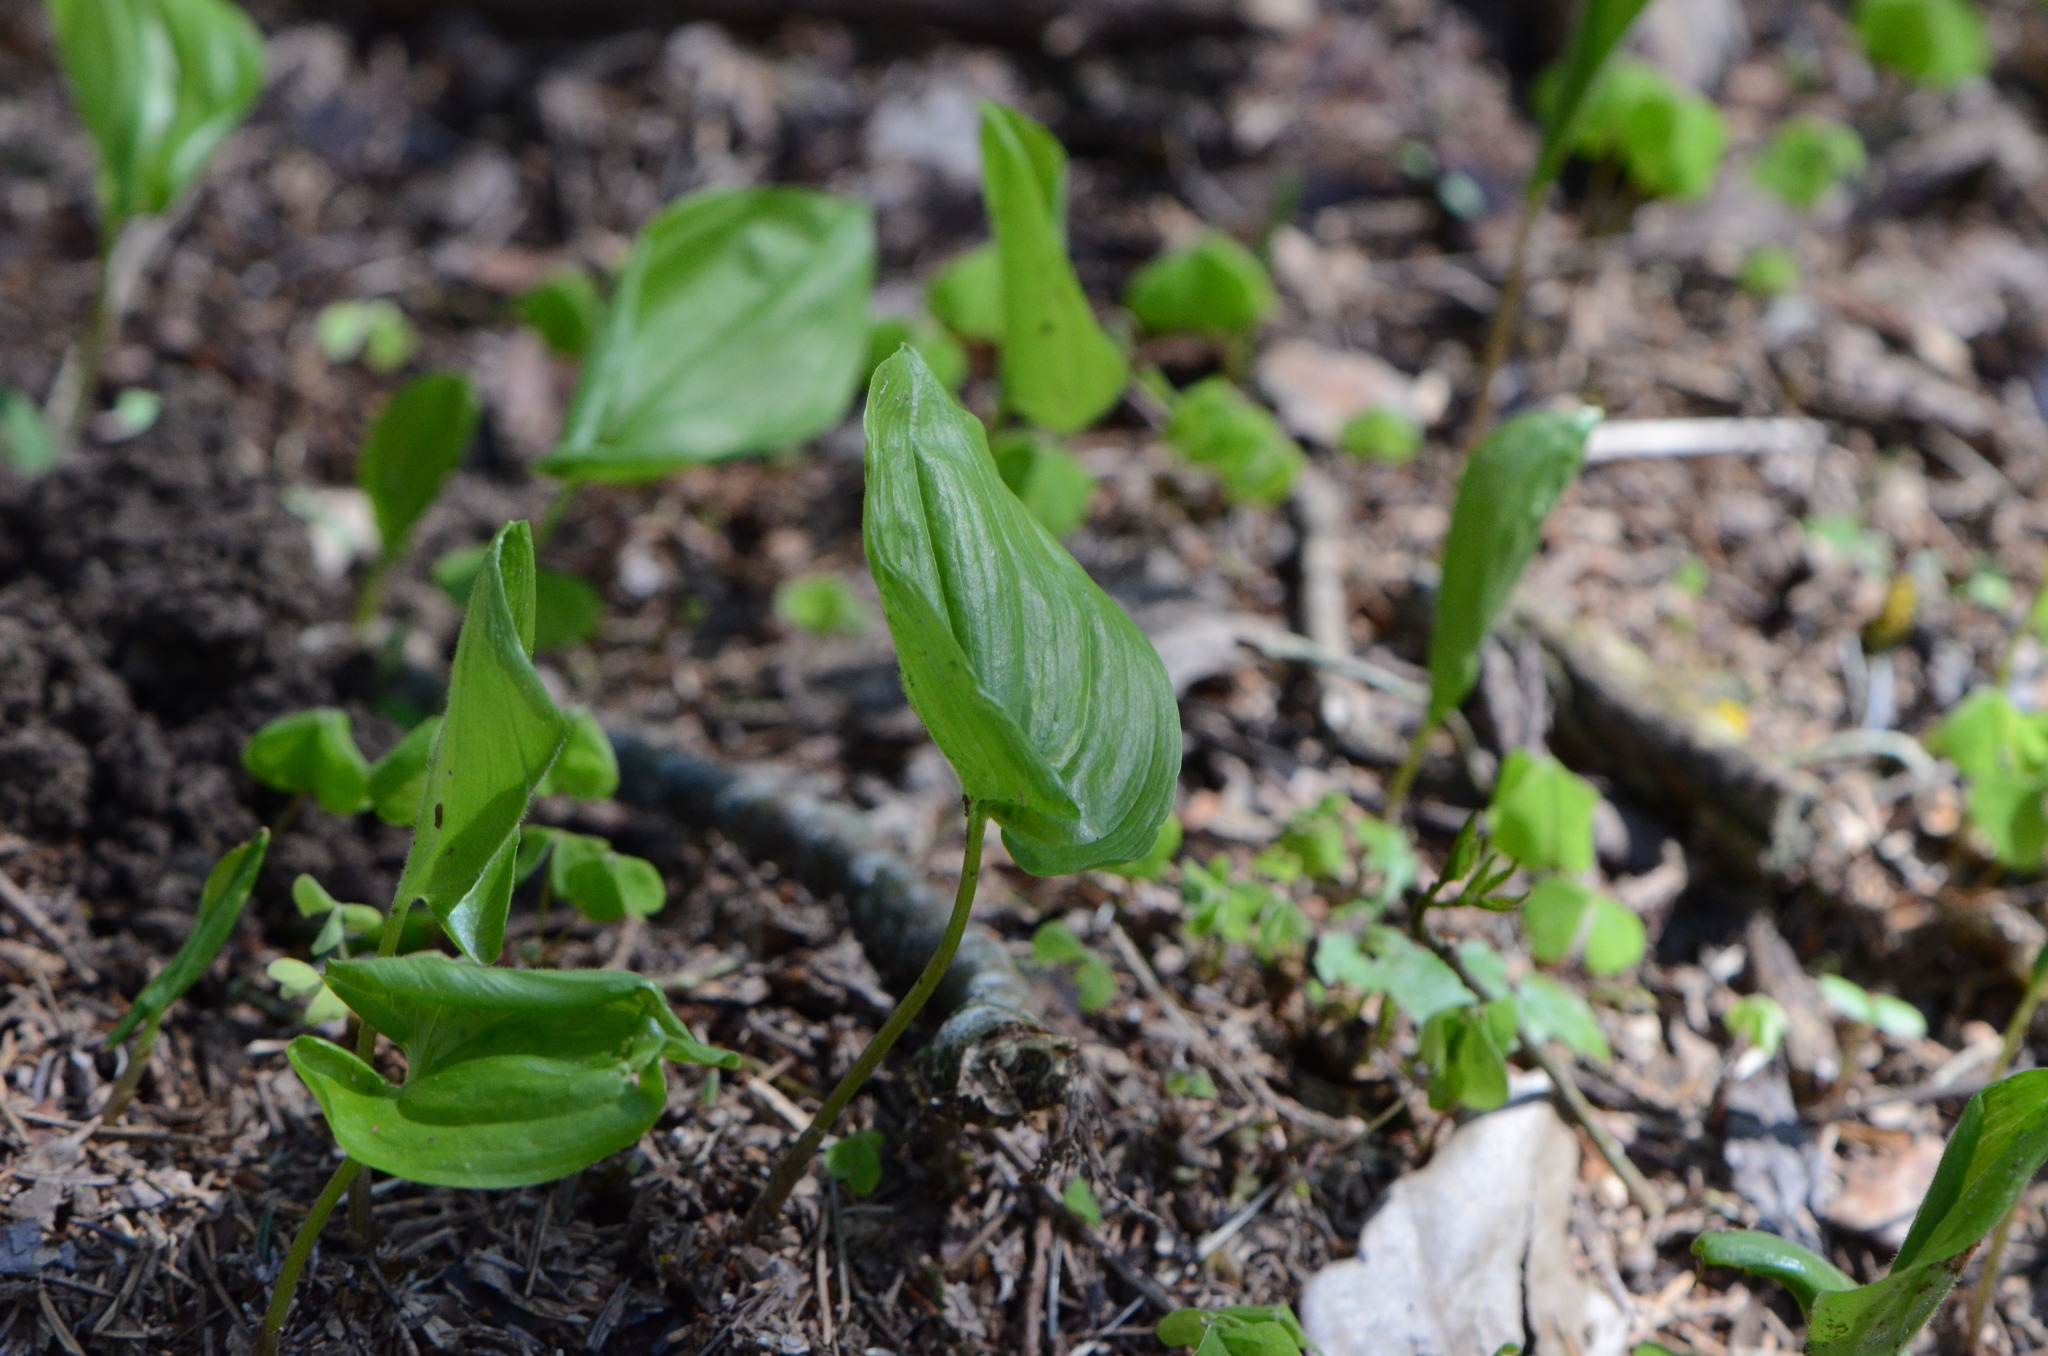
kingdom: Plantae
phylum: Tracheophyta
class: Liliopsida
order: Asparagales
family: Asparagaceae
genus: Maianthemum
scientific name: Maianthemum bifolium
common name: May lily
